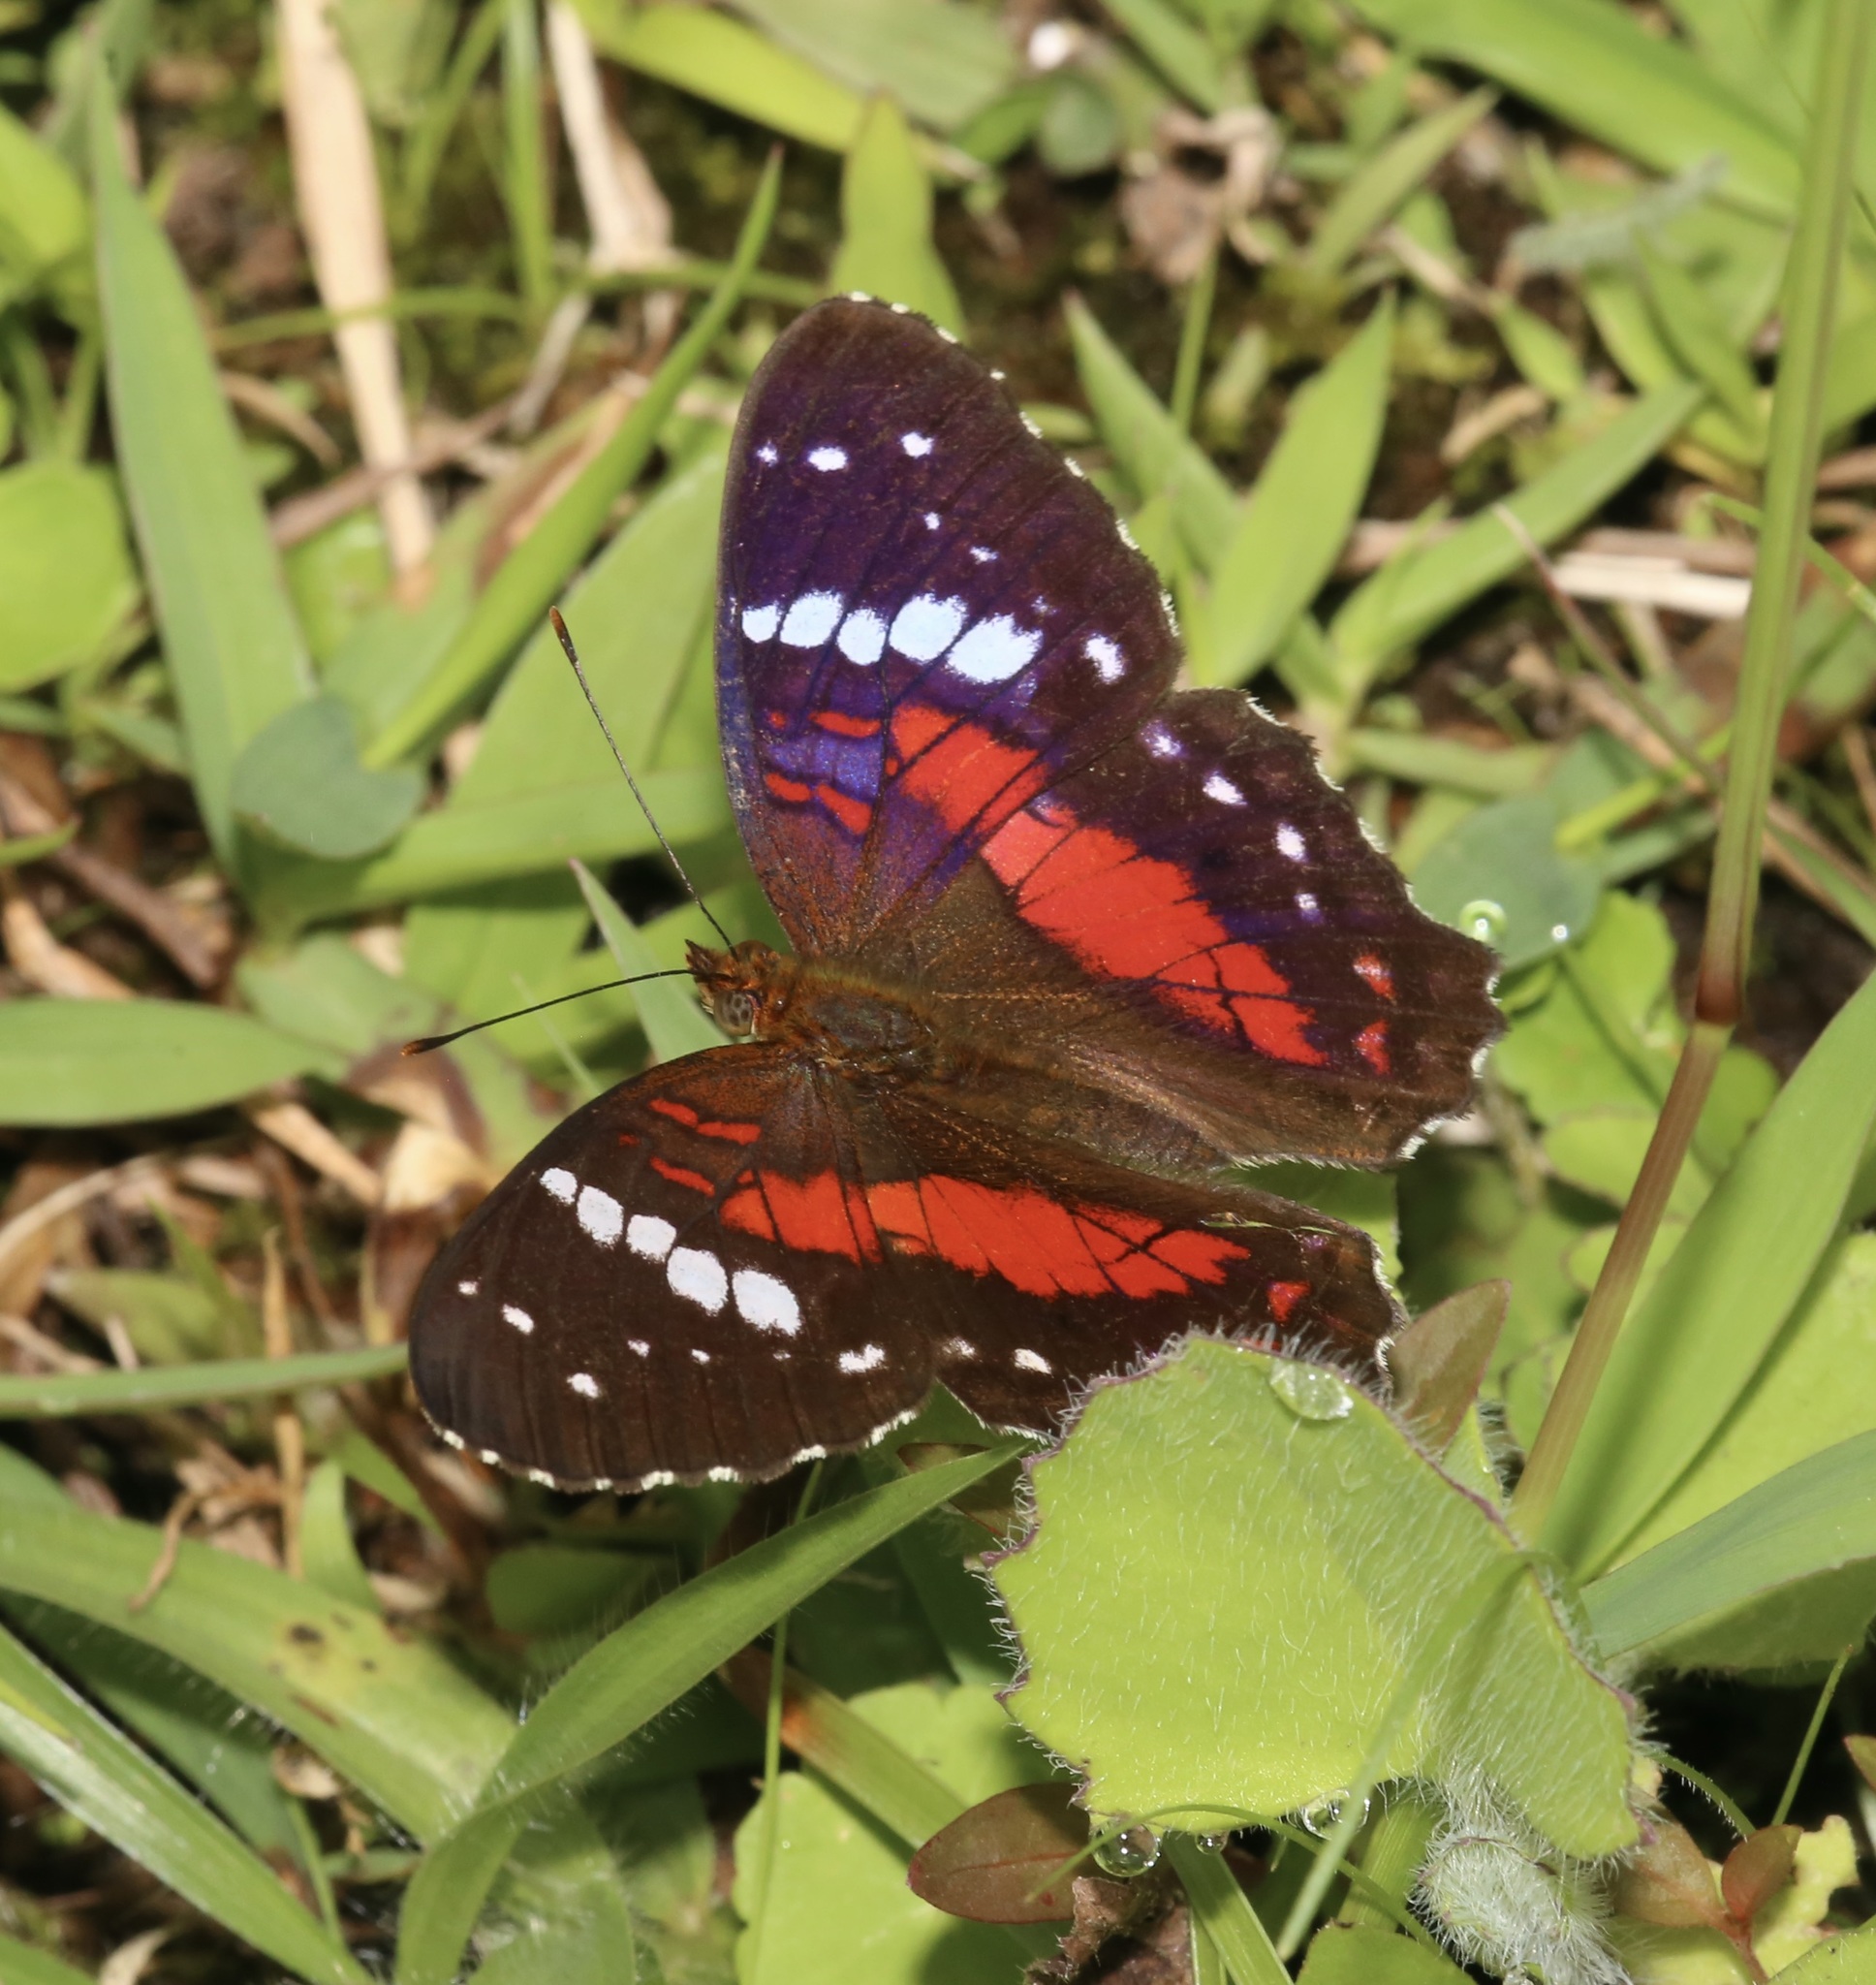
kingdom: Animalia
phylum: Arthropoda
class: Insecta
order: Lepidoptera
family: Nymphalidae
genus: Anartia
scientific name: Anartia amathea
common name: Red peacock
